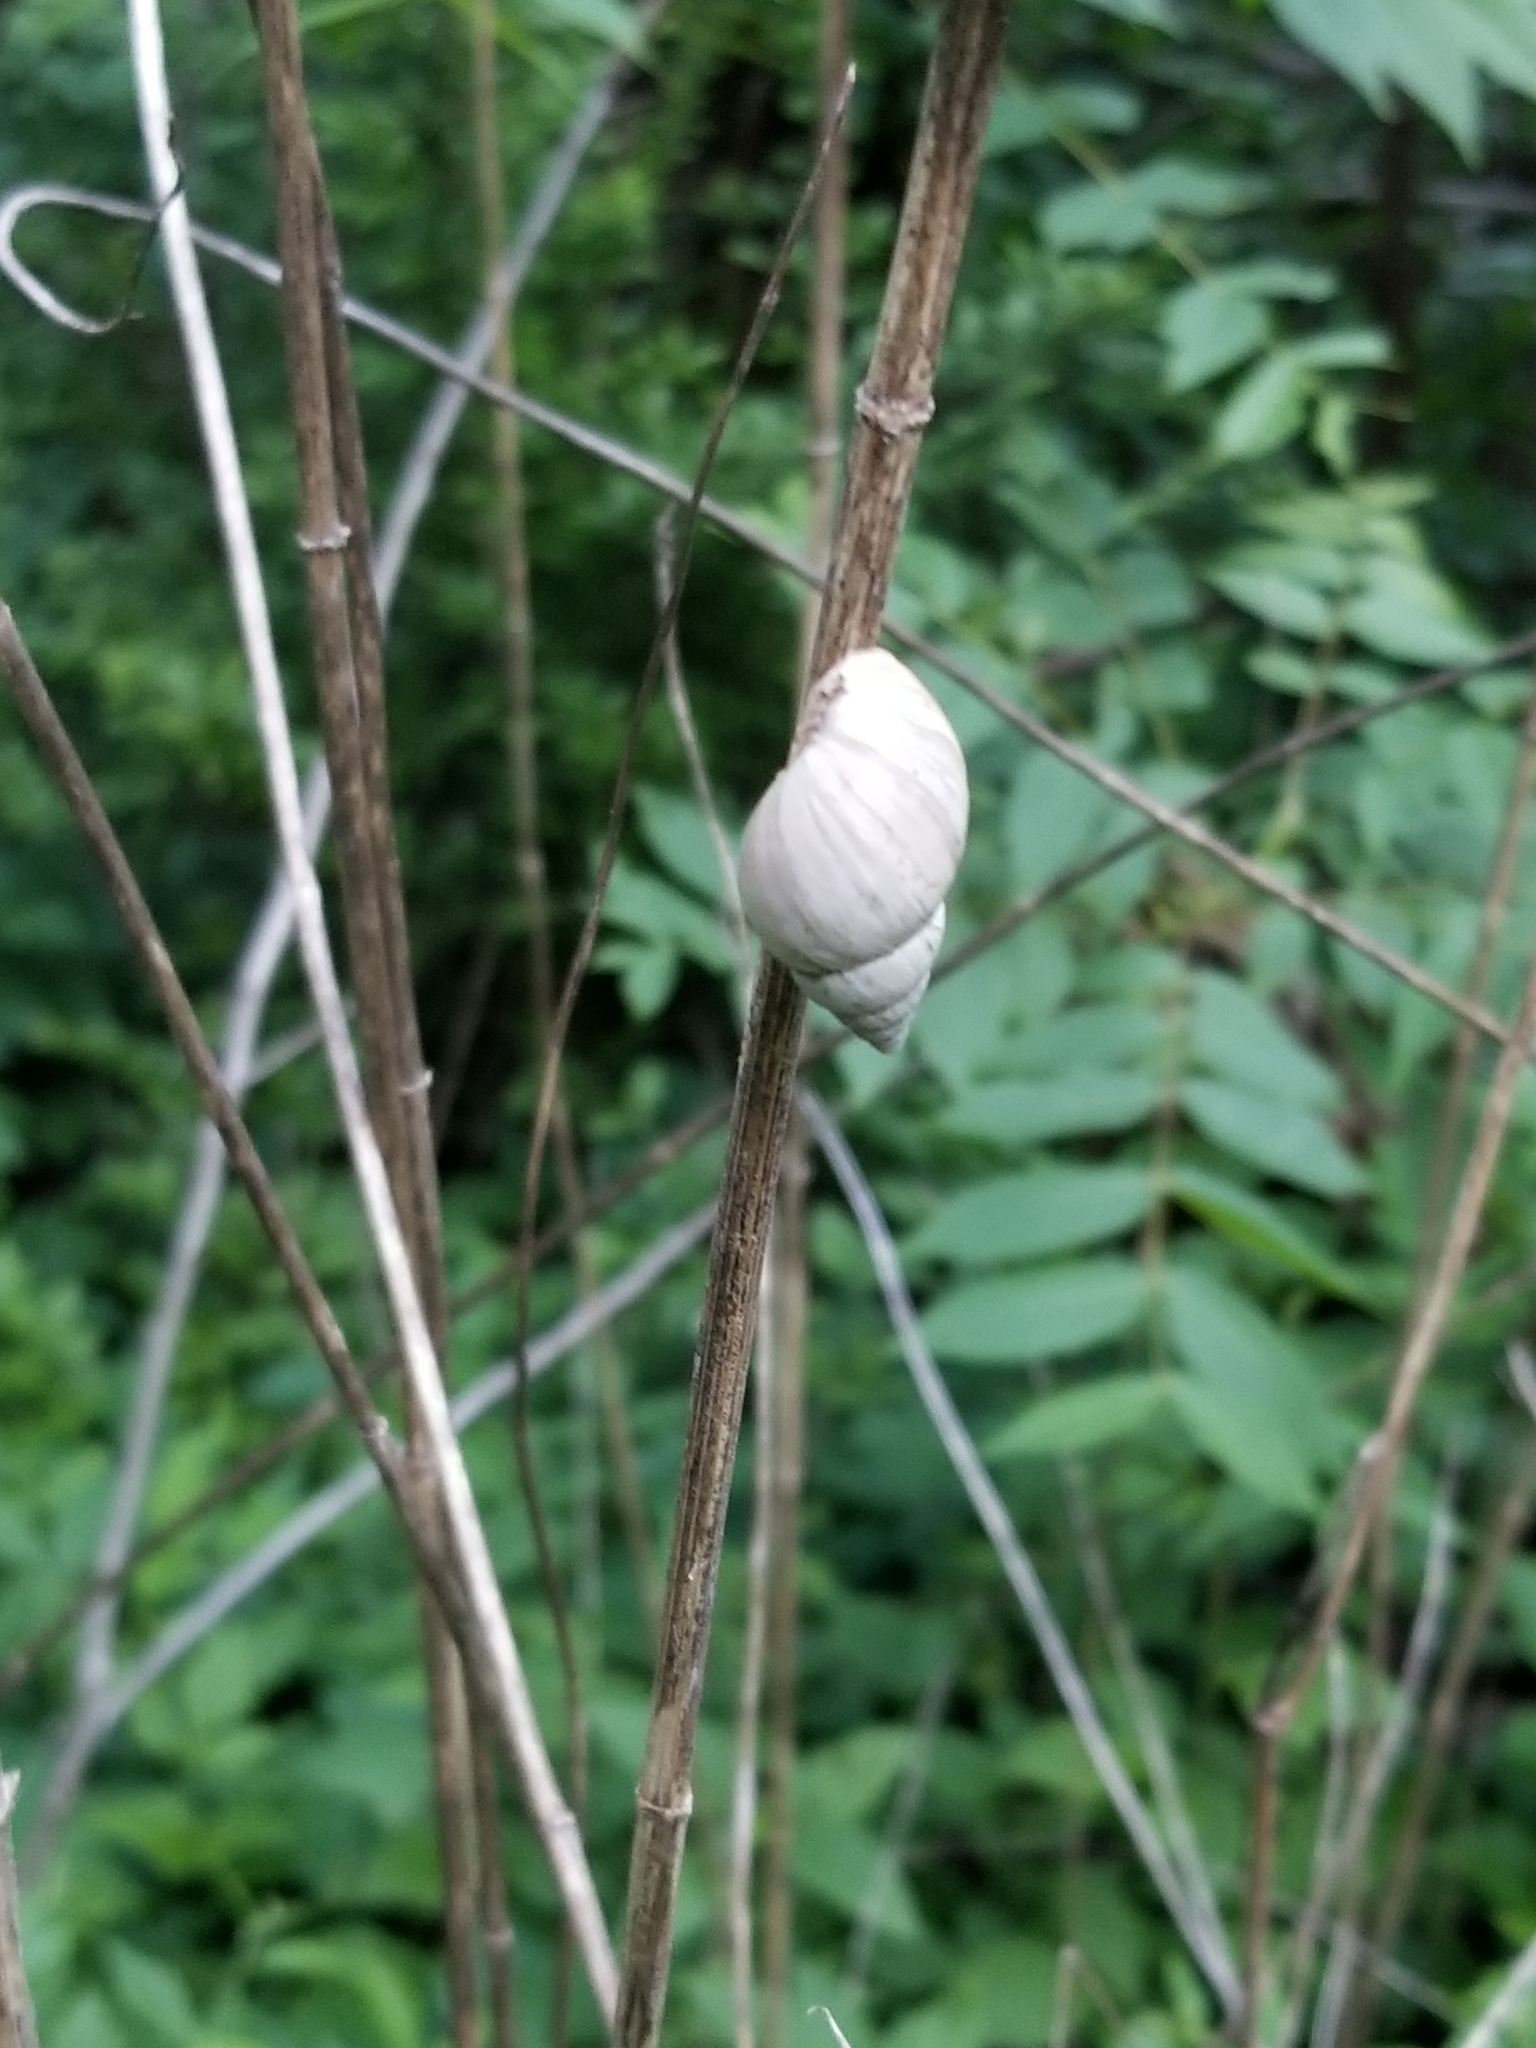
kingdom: Animalia
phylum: Mollusca
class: Gastropoda
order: Stylommatophora
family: Bulimulidae
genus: Rabdotus
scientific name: Rabdotus mooreanus
